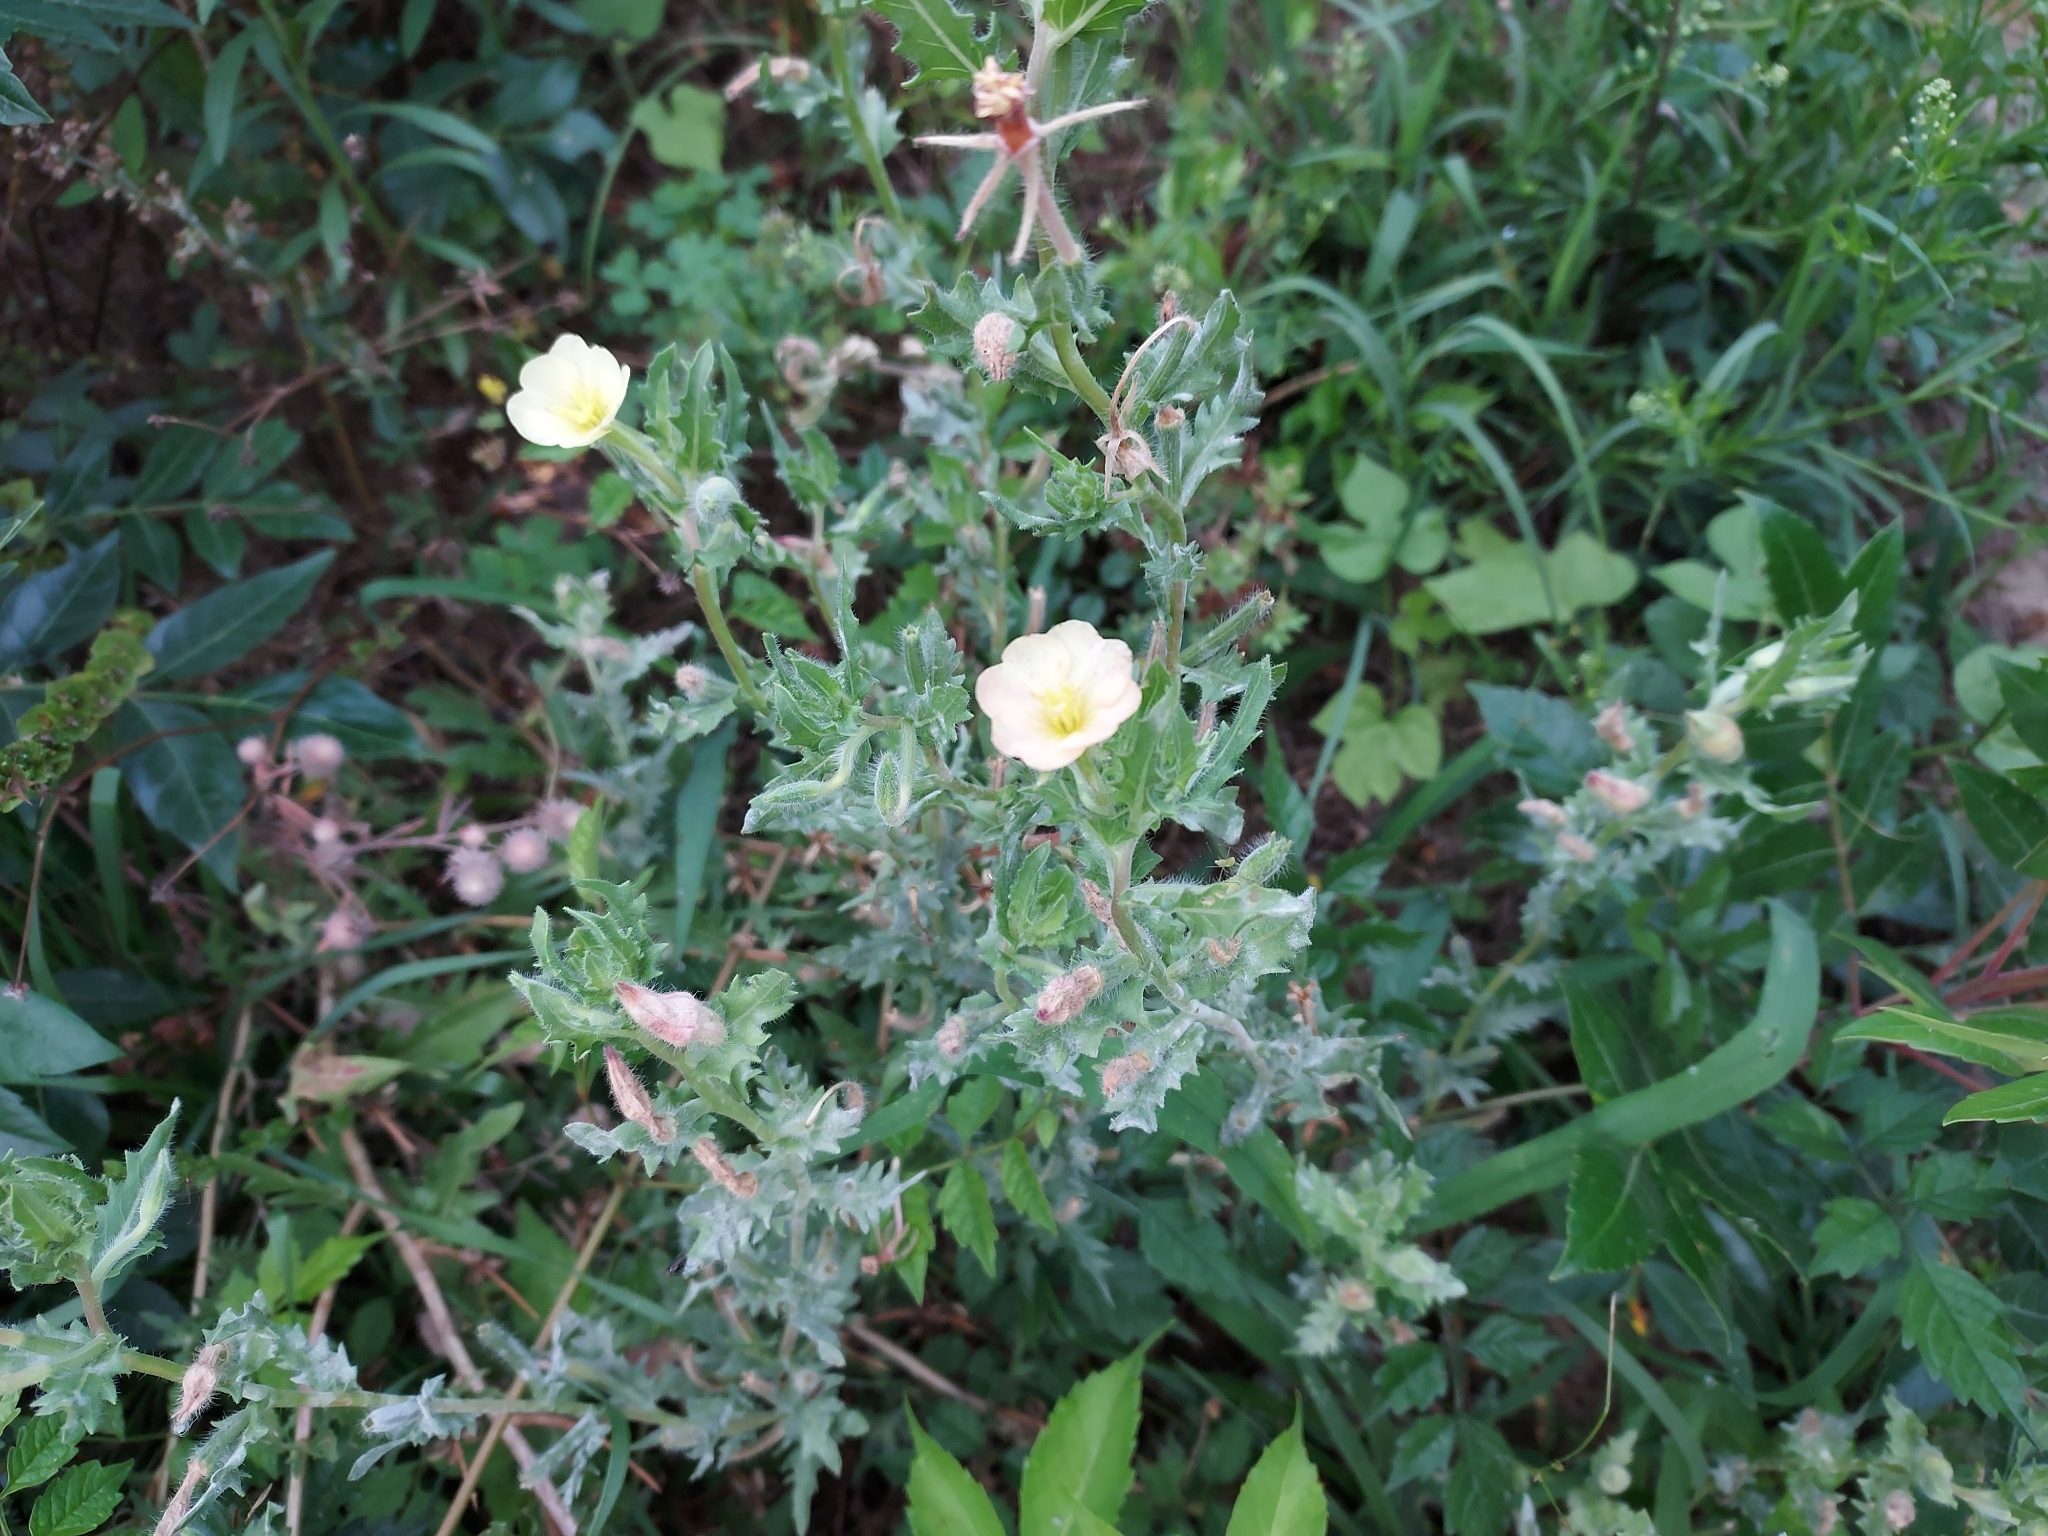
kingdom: Plantae
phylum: Tracheophyta
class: Magnoliopsida
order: Myrtales
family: Onagraceae
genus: Oenothera
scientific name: Oenothera laciniata
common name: Cut-leaved evening-primrose
